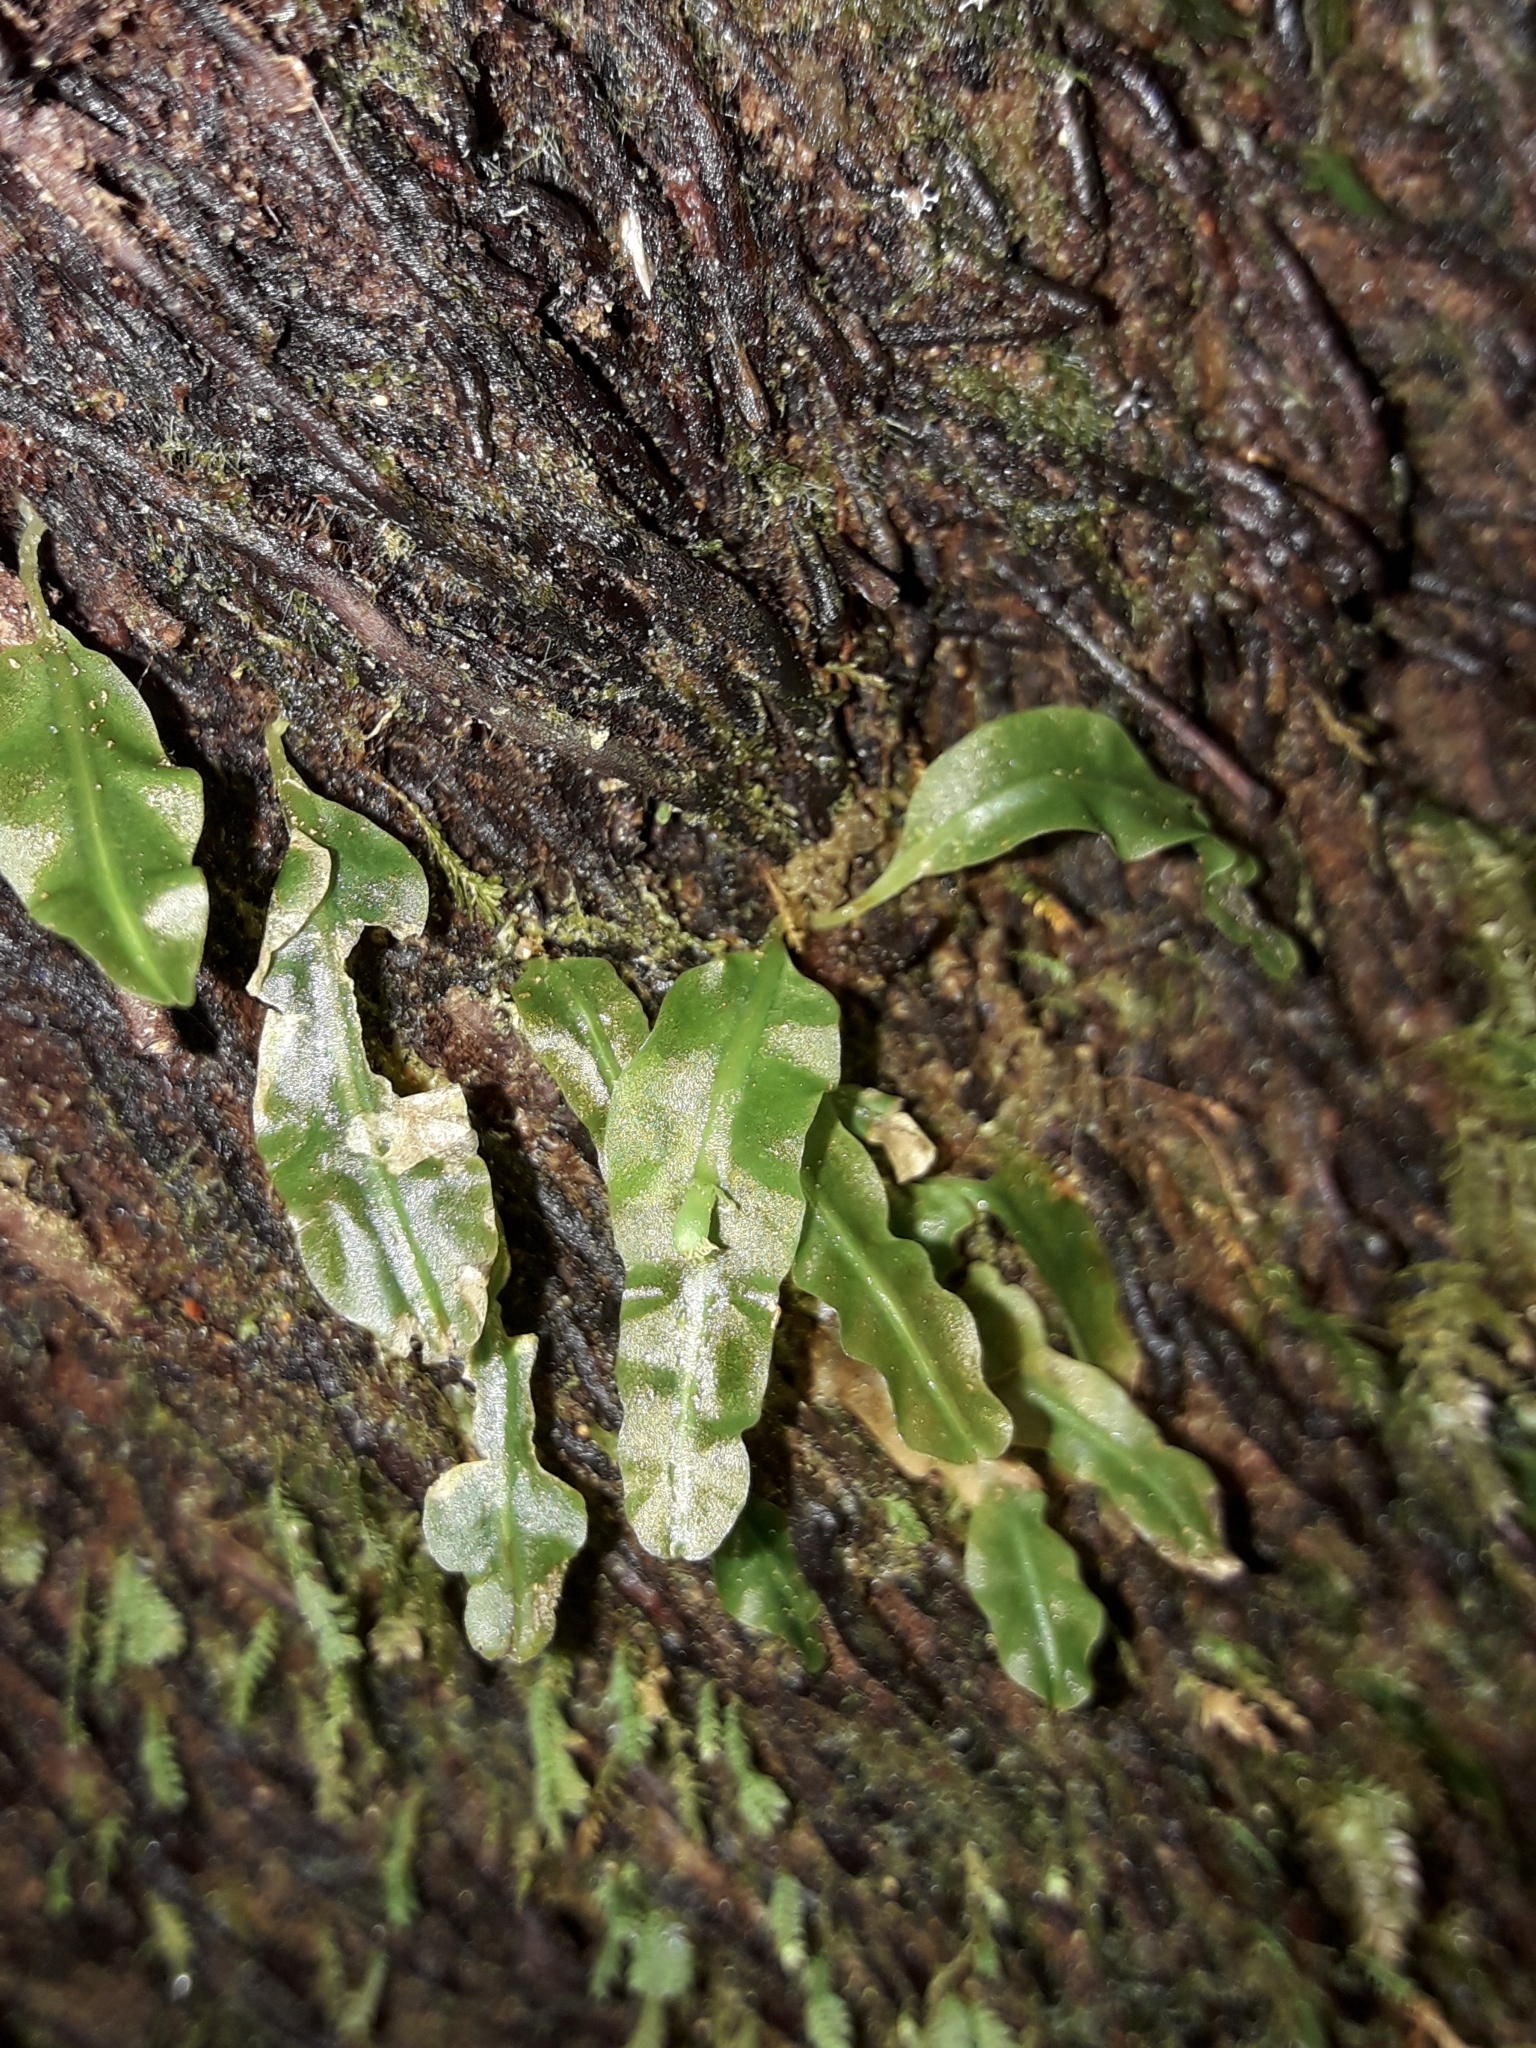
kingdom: Plantae
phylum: Marchantiophyta
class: Jungermanniopsida
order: Pallaviciniales
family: Pallaviciniaceae
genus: Symphyogyna
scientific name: Symphyogyna subsimplex
